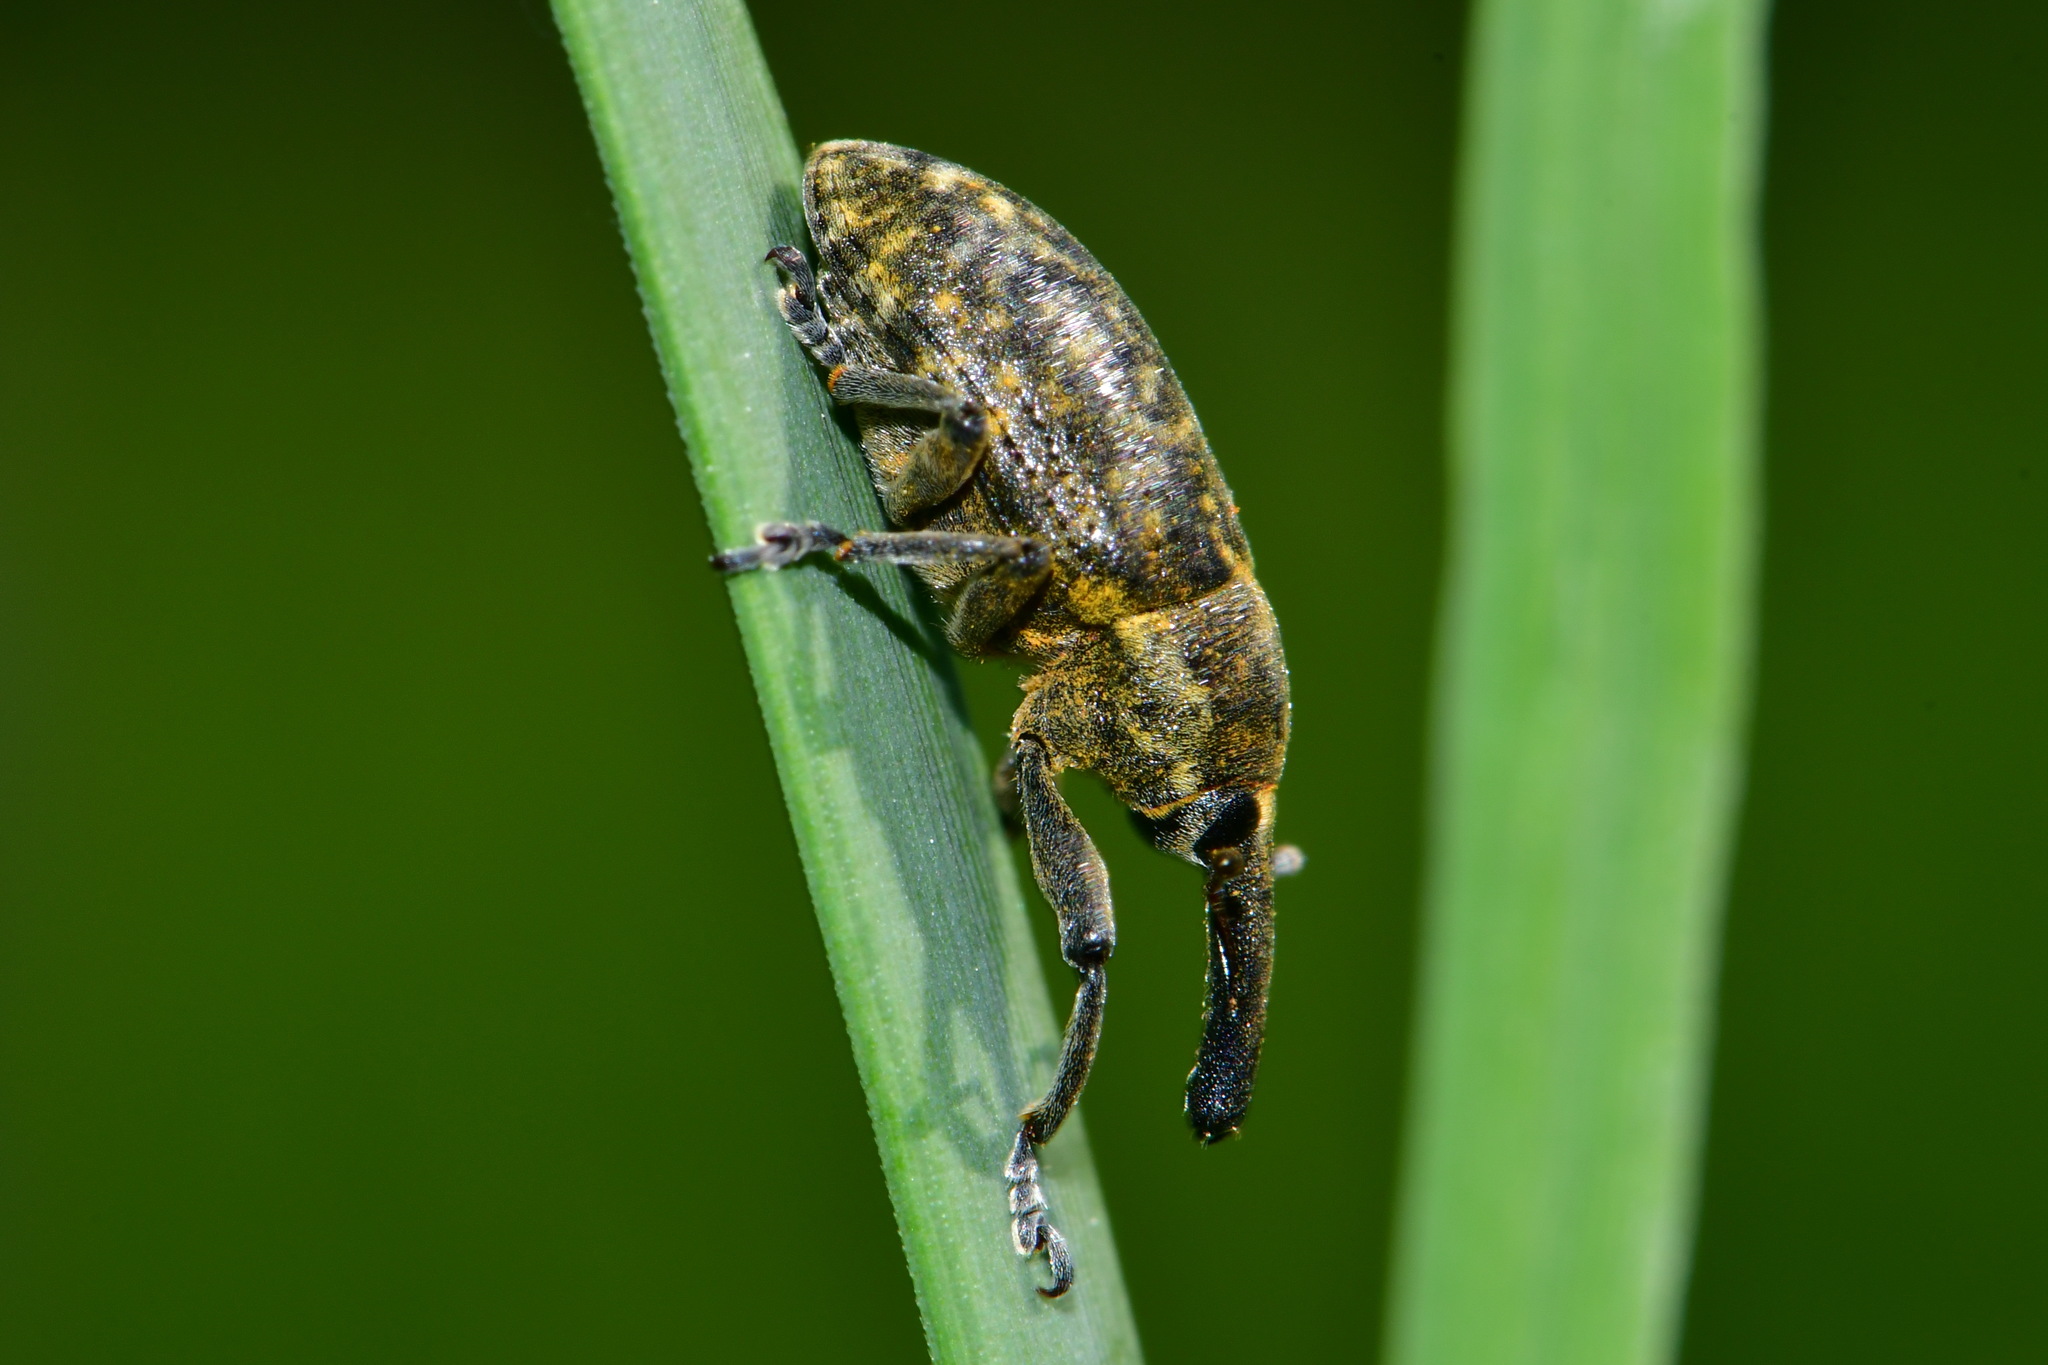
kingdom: Animalia
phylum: Arthropoda
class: Insecta
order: Coleoptera
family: Curculionidae
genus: Larinus
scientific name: Larinus sturnus
